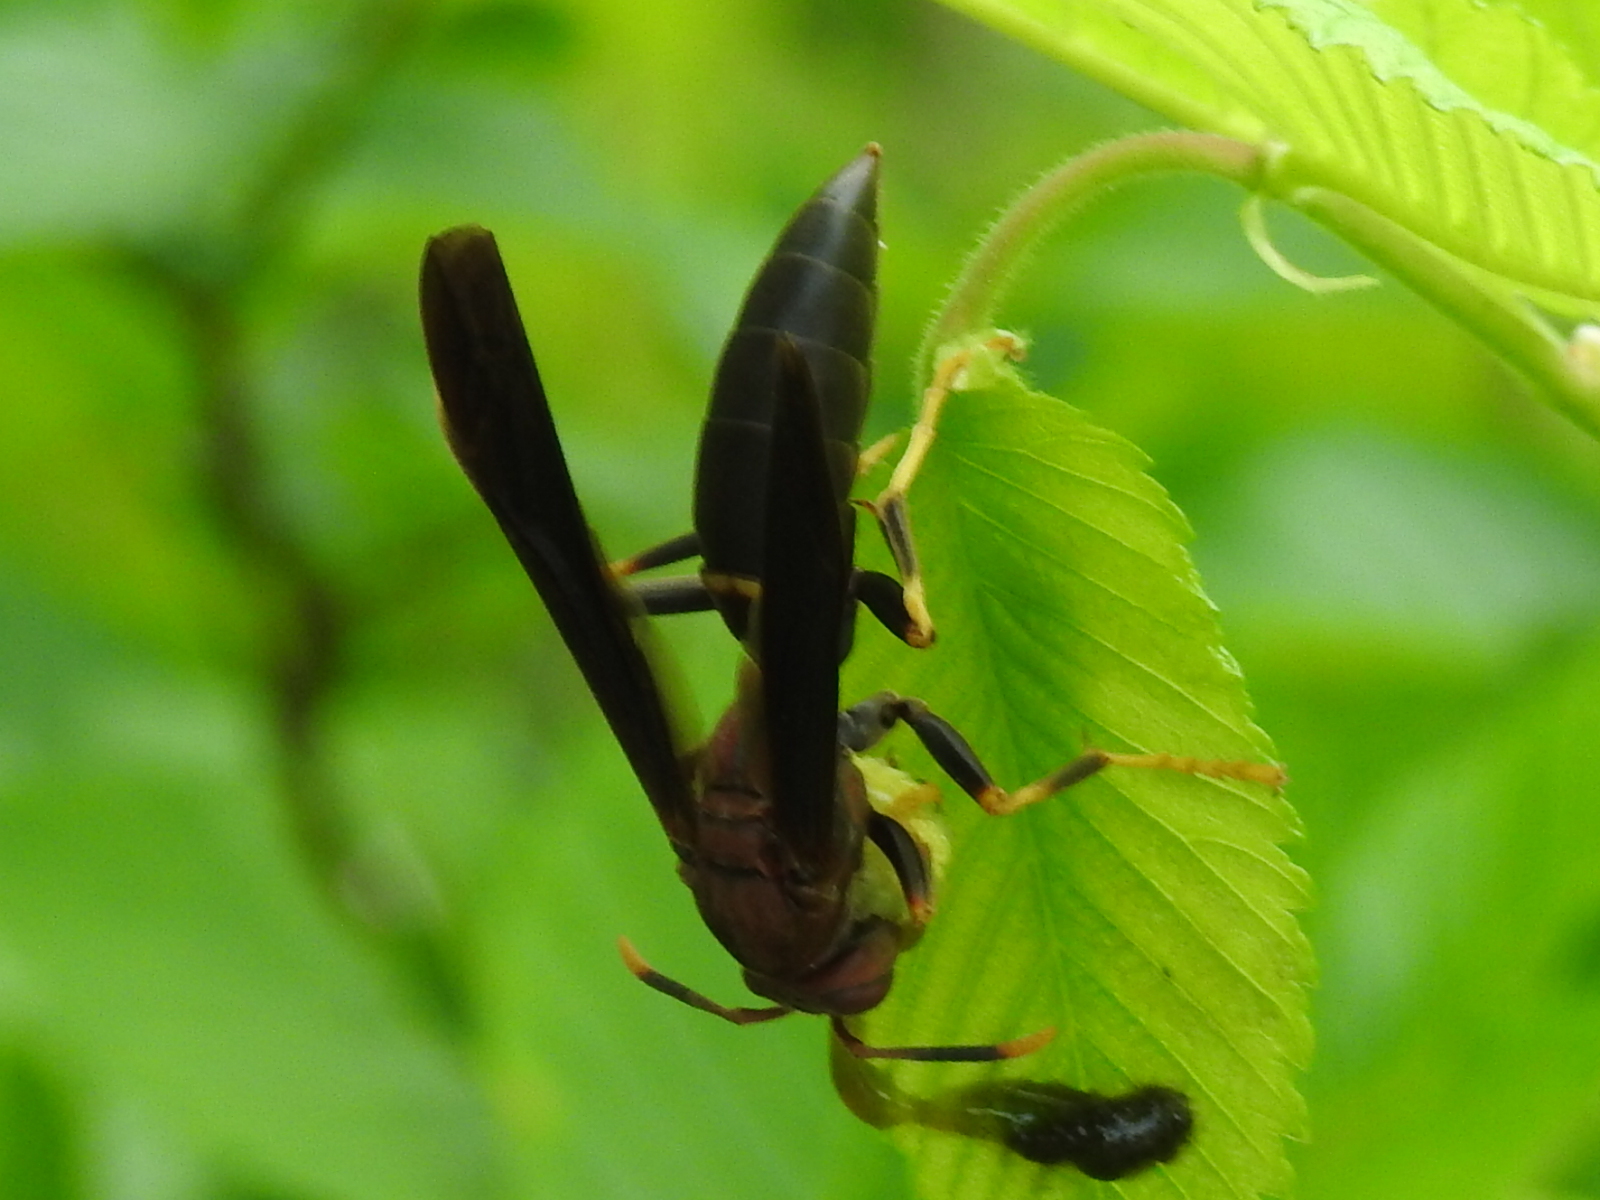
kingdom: Animalia
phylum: Arthropoda
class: Insecta
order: Hymenoptera
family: Eumenidae
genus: Polistes
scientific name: Polistes annularis
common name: Ringed paper wasp
